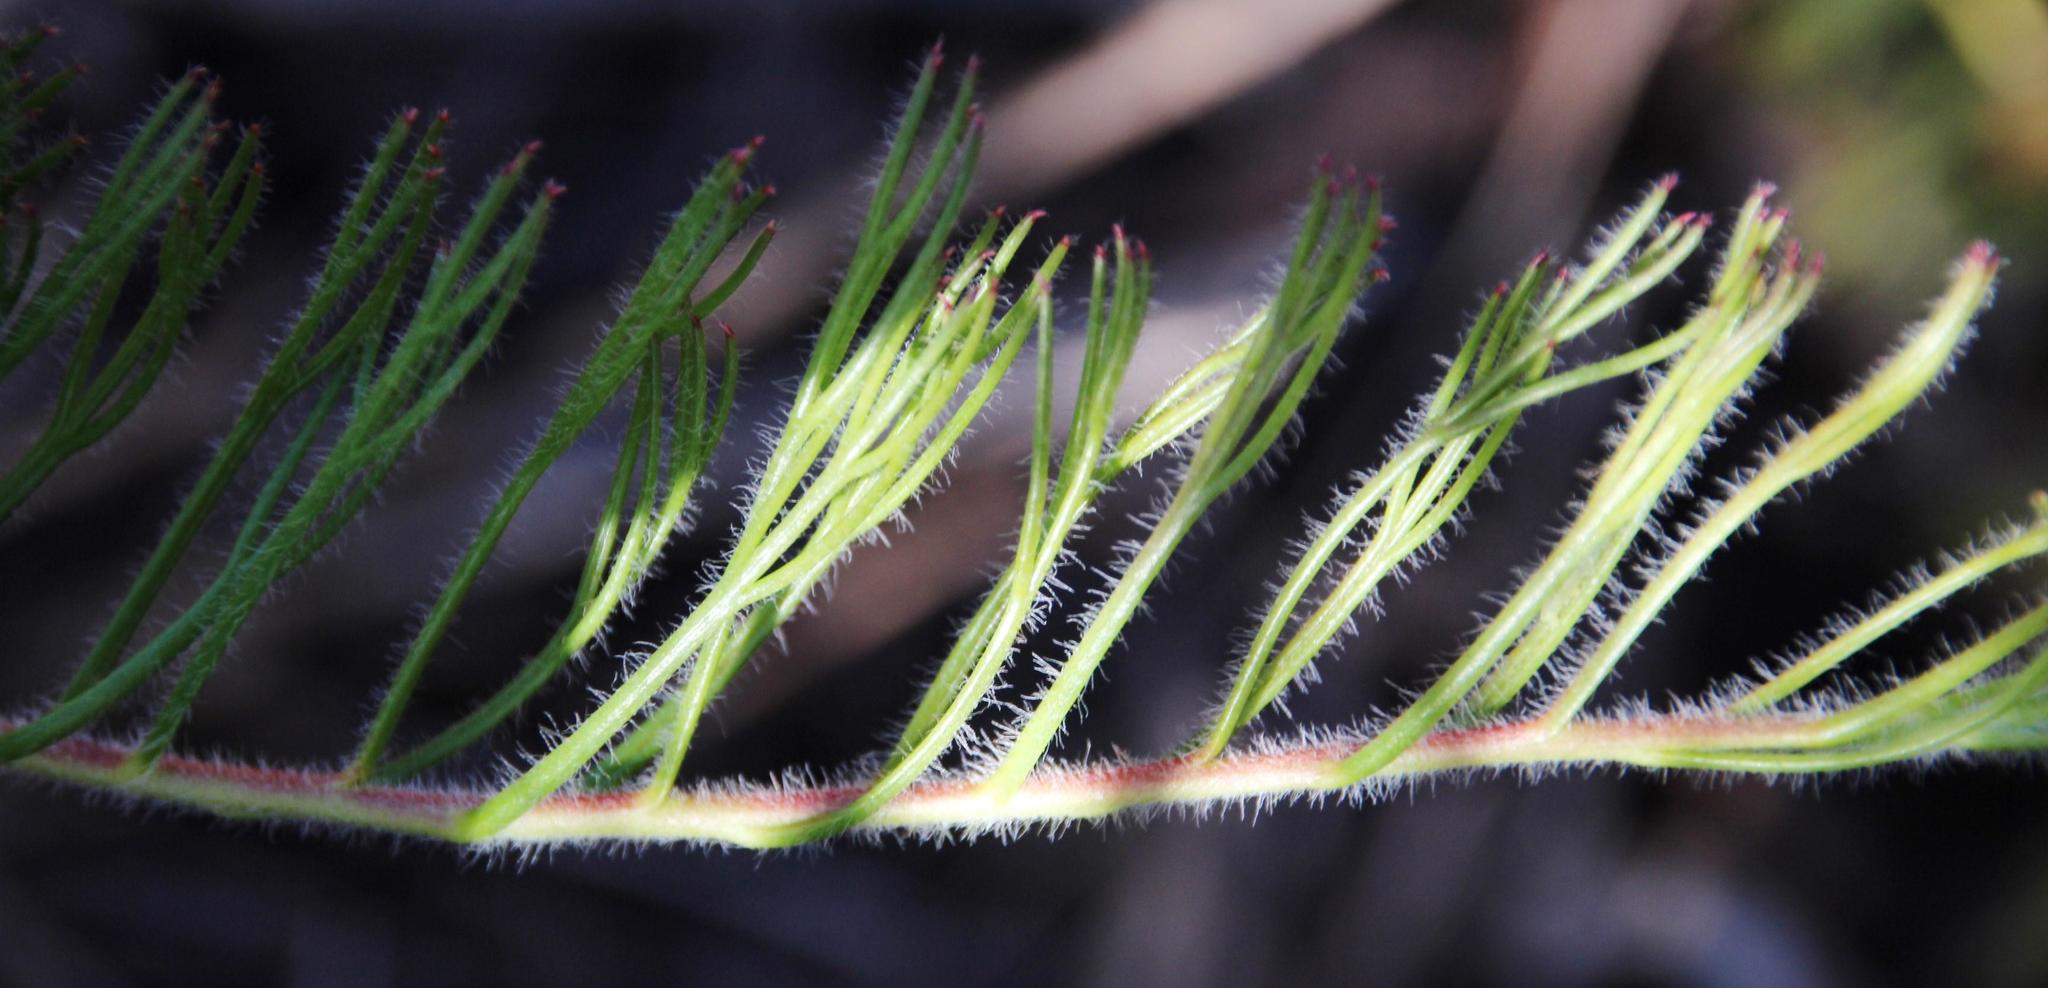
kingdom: Plantae
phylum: Tracheophyta
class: Magnoliopsida
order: Proteales
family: Proteaceae
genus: Serruria
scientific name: Serruria pinnata
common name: Graceful spiderhead
